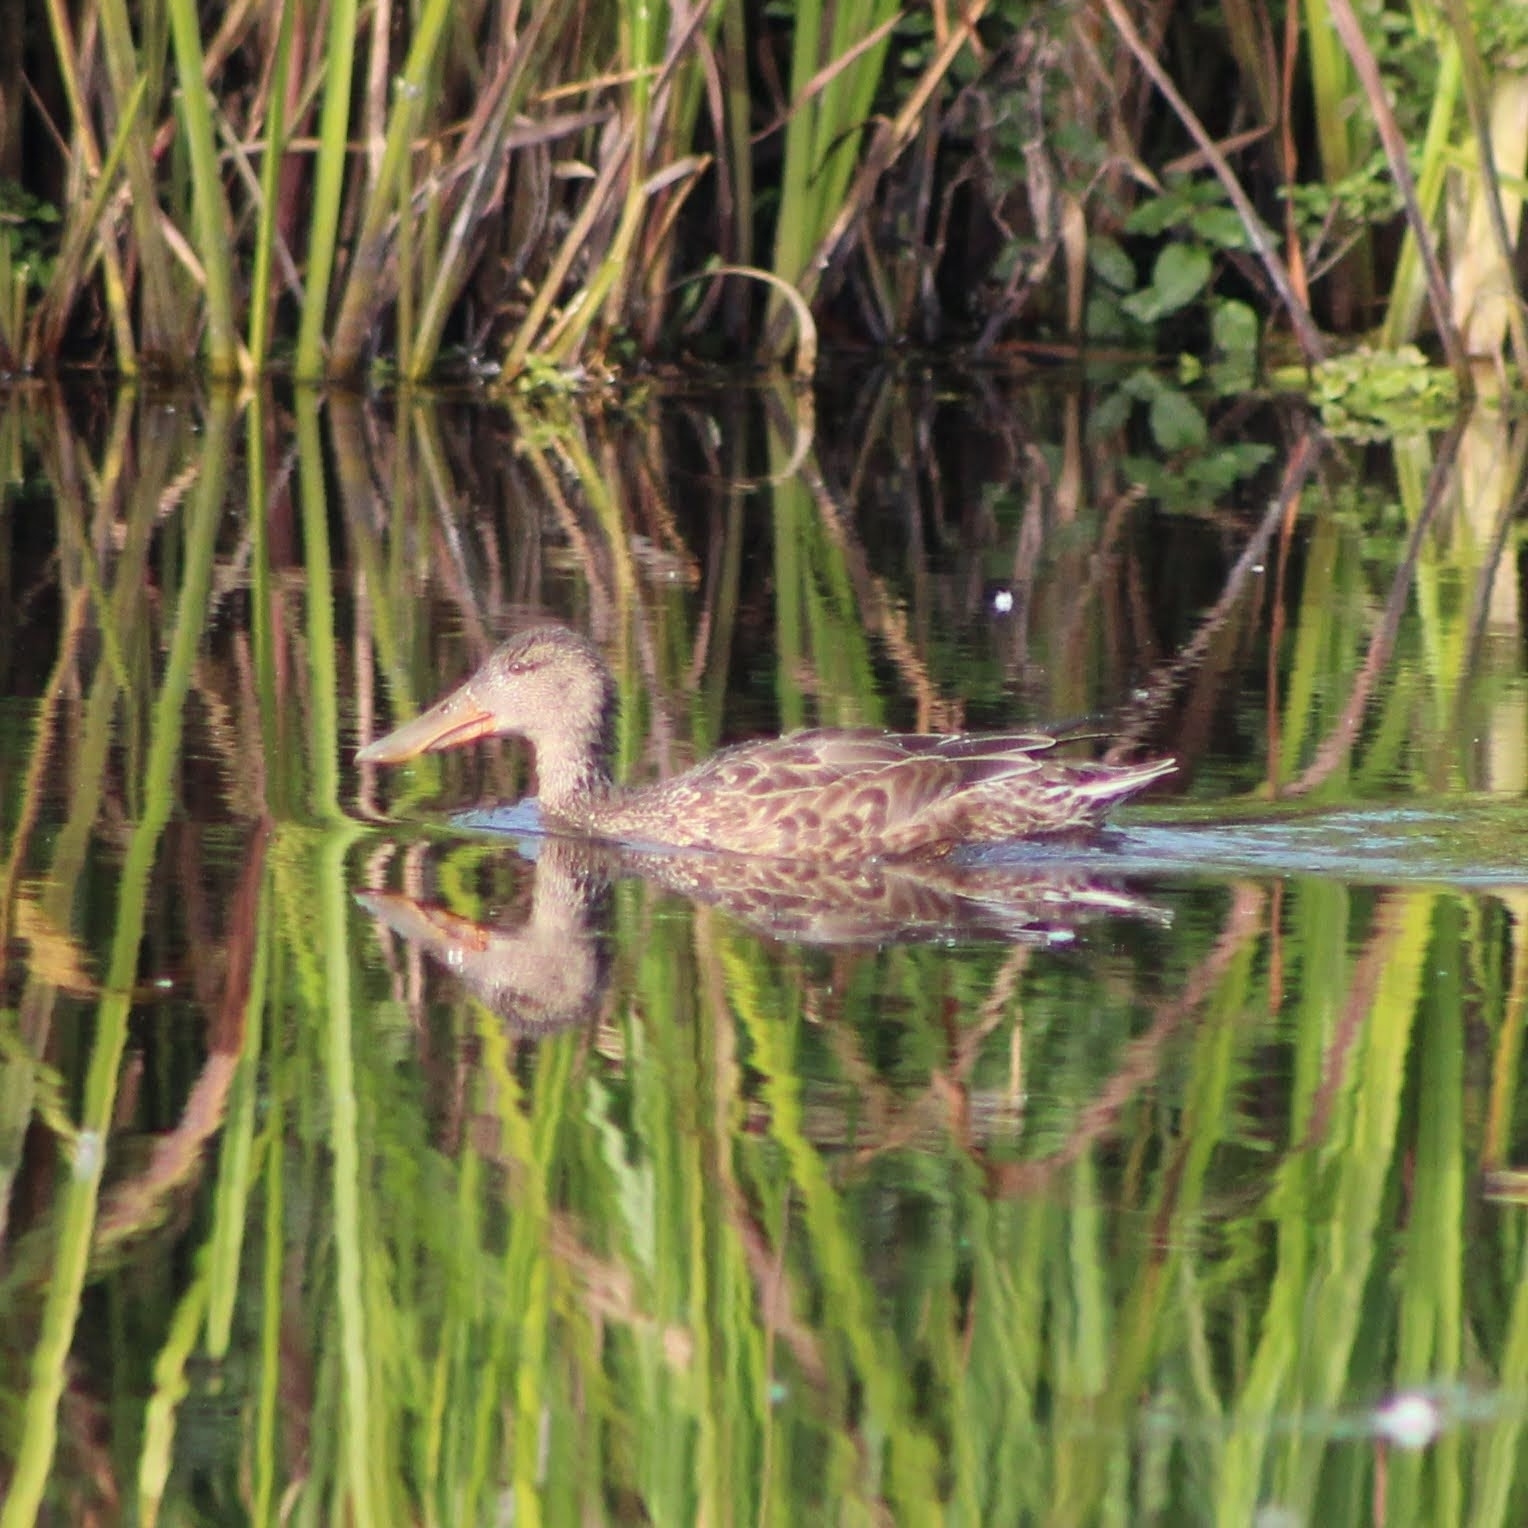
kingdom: Animalia
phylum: Chordata
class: Aves
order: Anseriformes
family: Anatidae
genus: Spatula
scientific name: Spatula clypeata
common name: Northern shoveler
